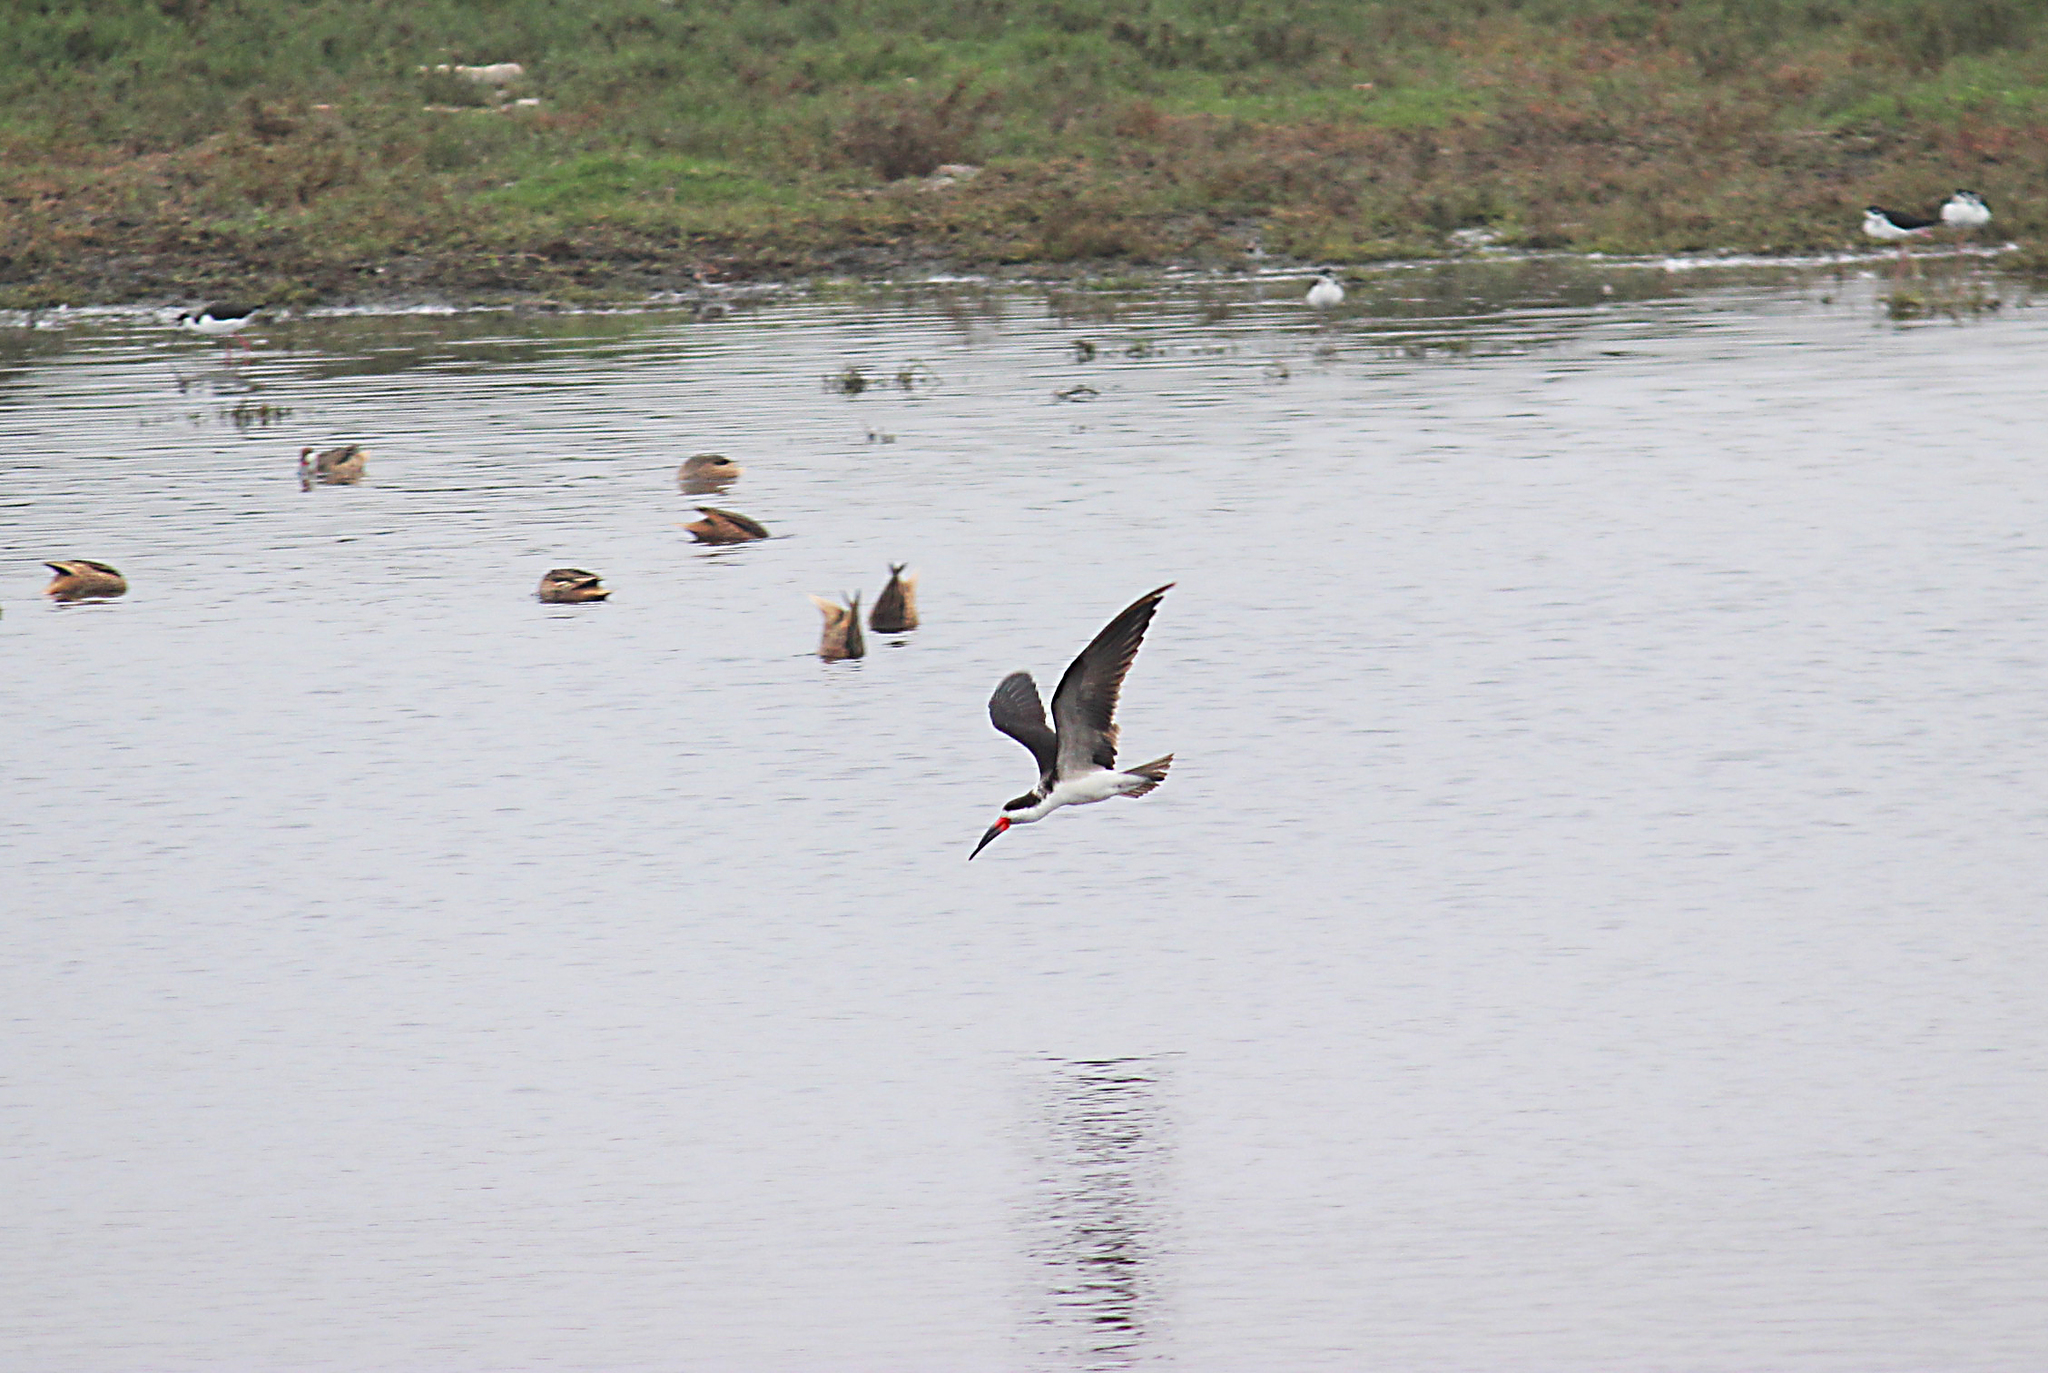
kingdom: Animalia
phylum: Chordata
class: Aves
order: Charadriiformes
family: Laridae
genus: Rynchops
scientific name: Rynchops niger
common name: Black skimmer
